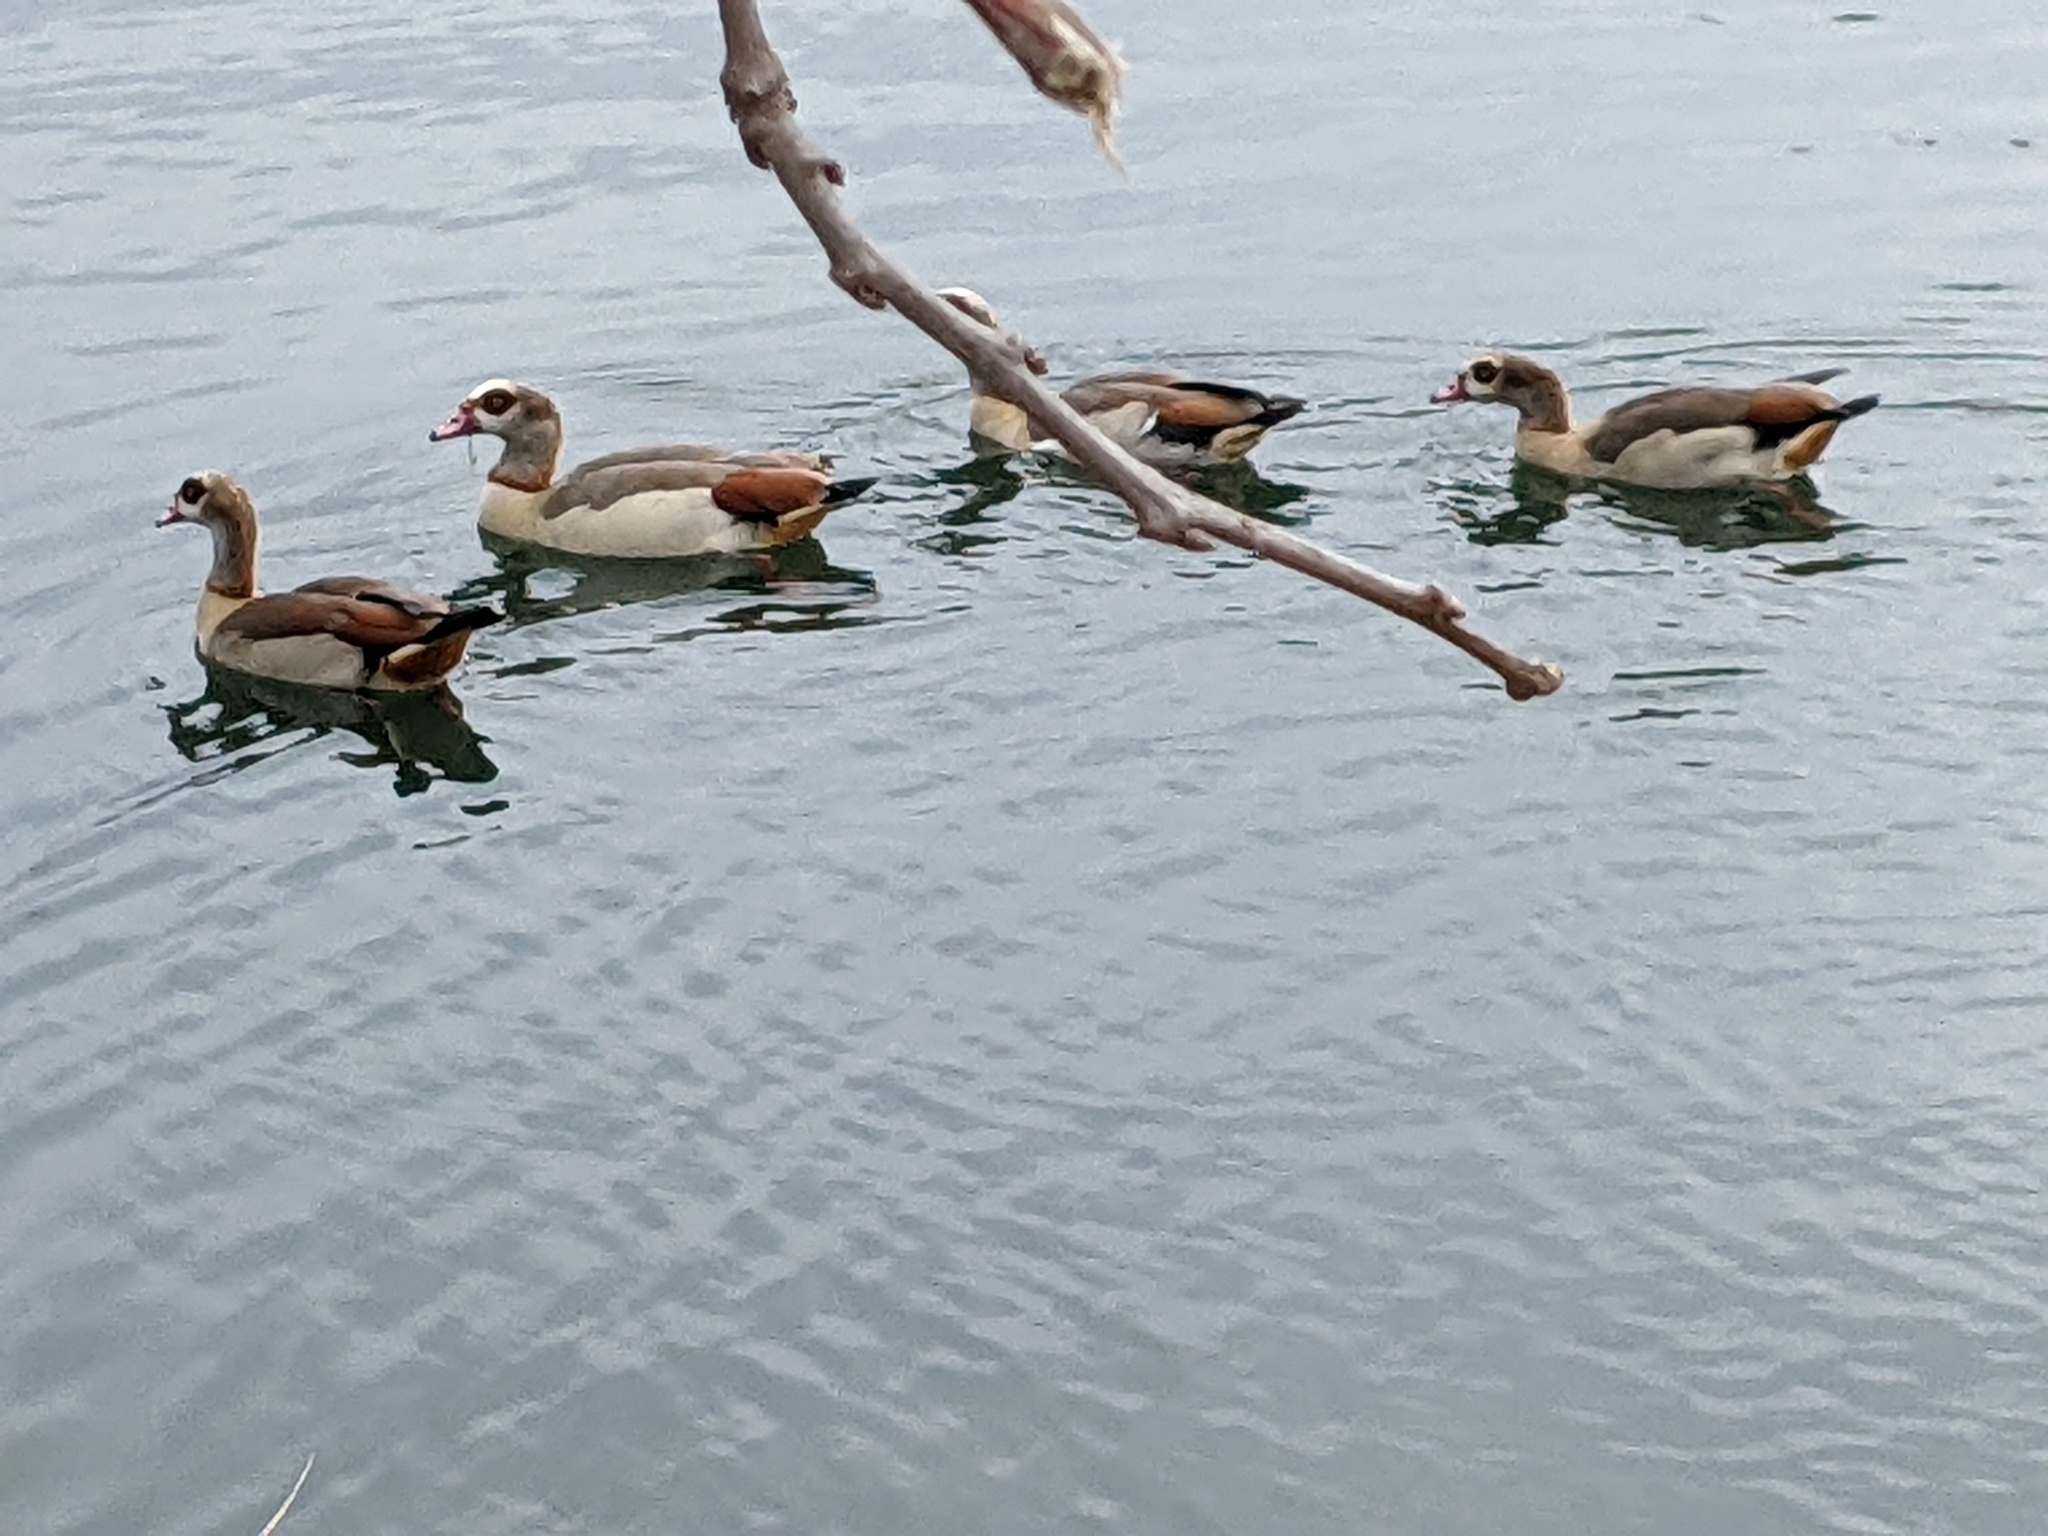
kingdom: Animalia
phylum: Chordata
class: Aves
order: Anseriformes
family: Anatidae
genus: Alopochen
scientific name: Alopochen aegyptiaca
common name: Egyptian goose
